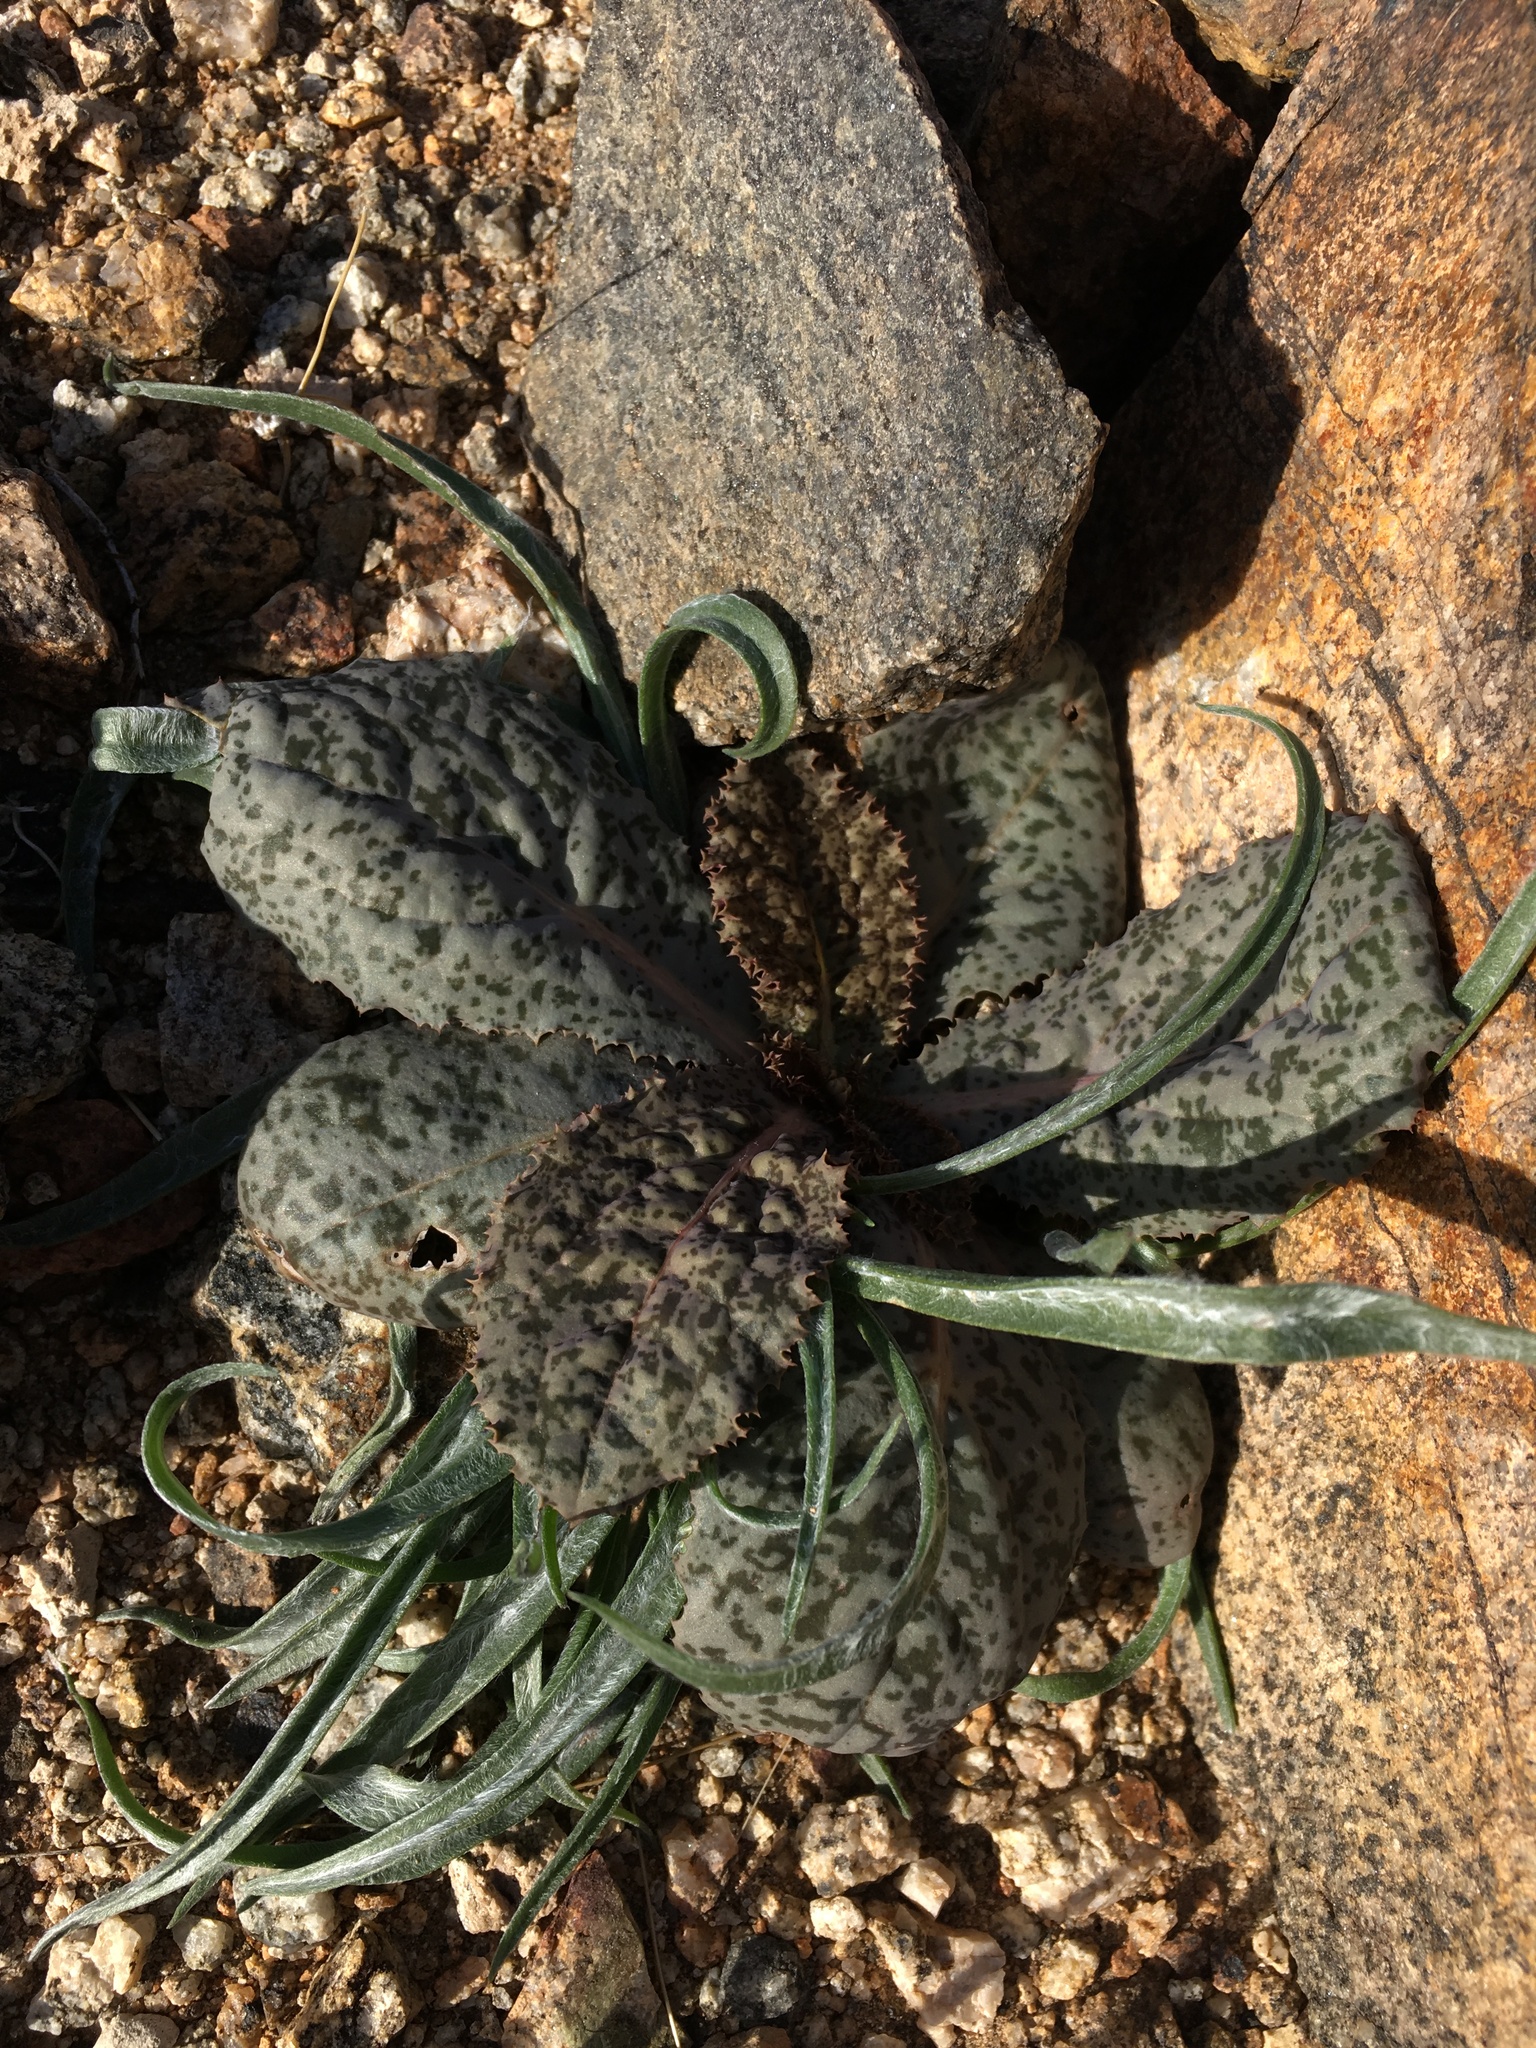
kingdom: Plantae
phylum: Tracheophyta
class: Magnoliopsida
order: Asterales
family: Asteraceae
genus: Atrichoseris
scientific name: Atrichoseris platyphylla
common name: Tobaccoweed
